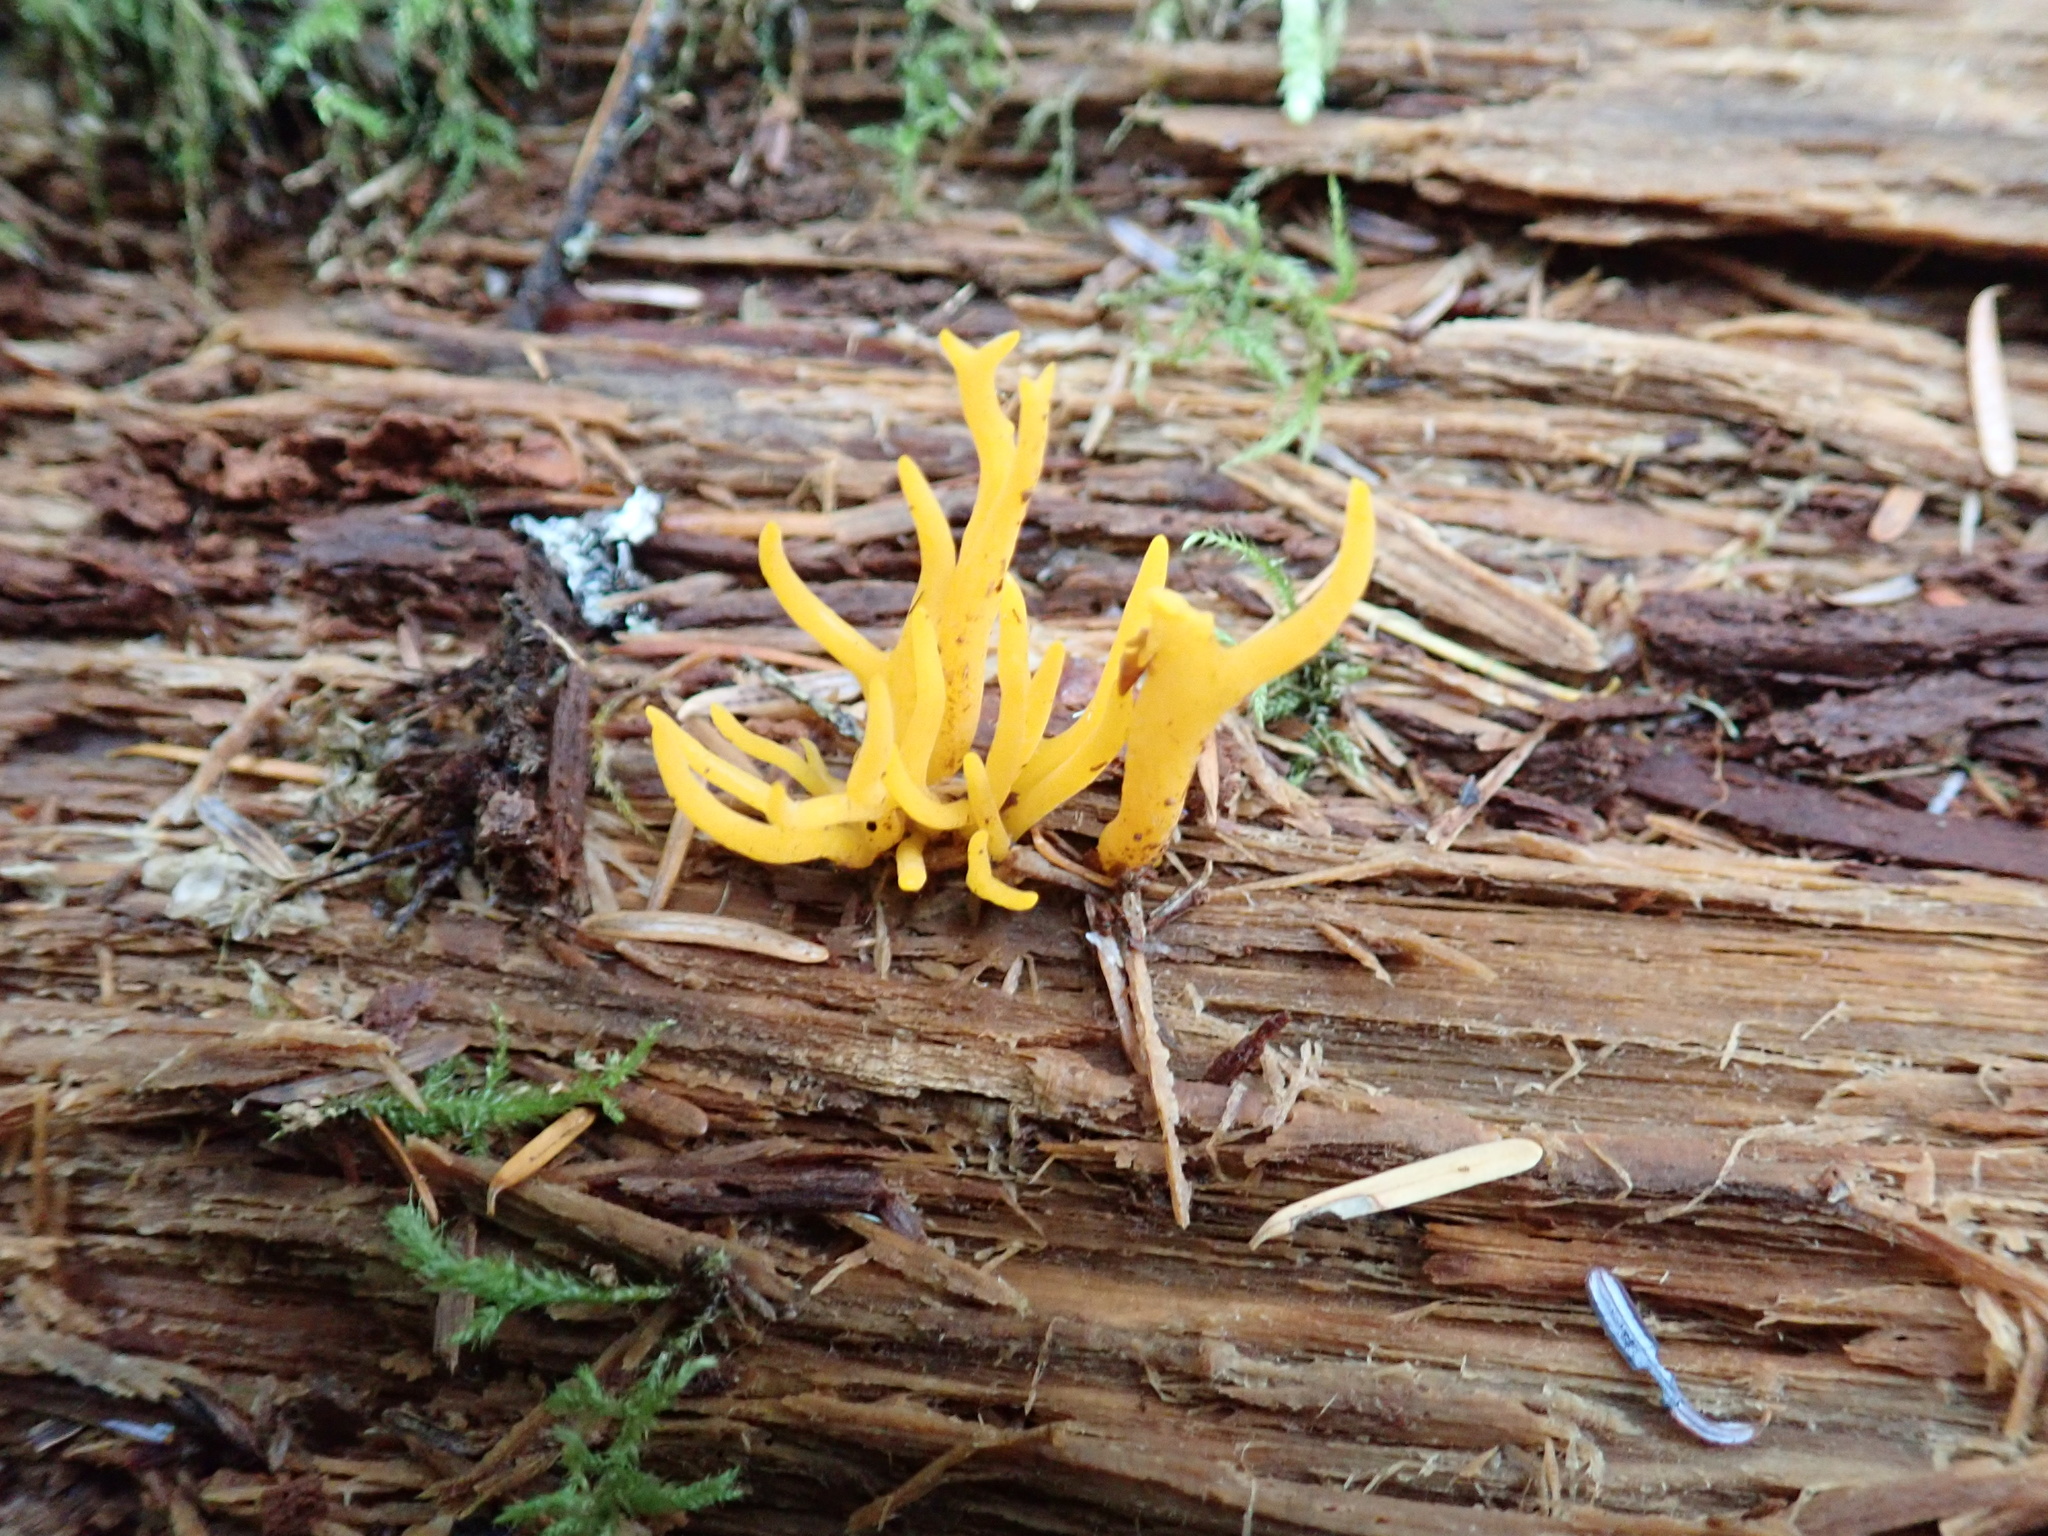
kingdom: Fungi
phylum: Basidiomycota
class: Dacrymycetes
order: Dacrymycetales
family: Dacrymycetaceae
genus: Calocera
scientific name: Calocera cornea
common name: Small stagshorn
